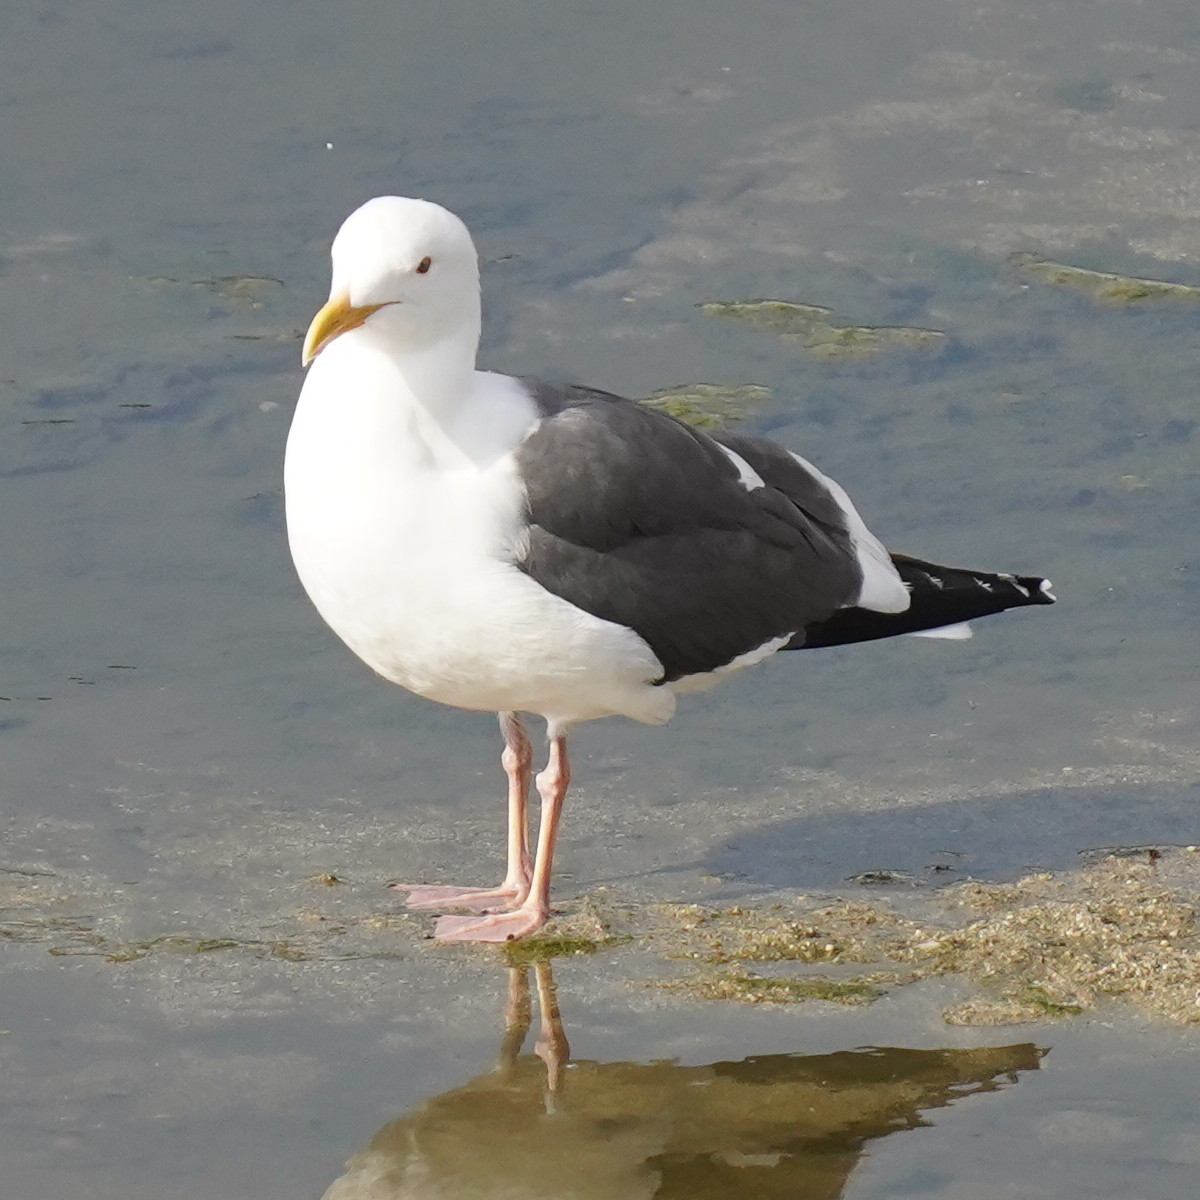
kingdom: Animalia
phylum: Chordata
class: Aves
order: Charadriiformes
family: Laridae
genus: Larus
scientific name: Larus occidentalis
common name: Western gull
